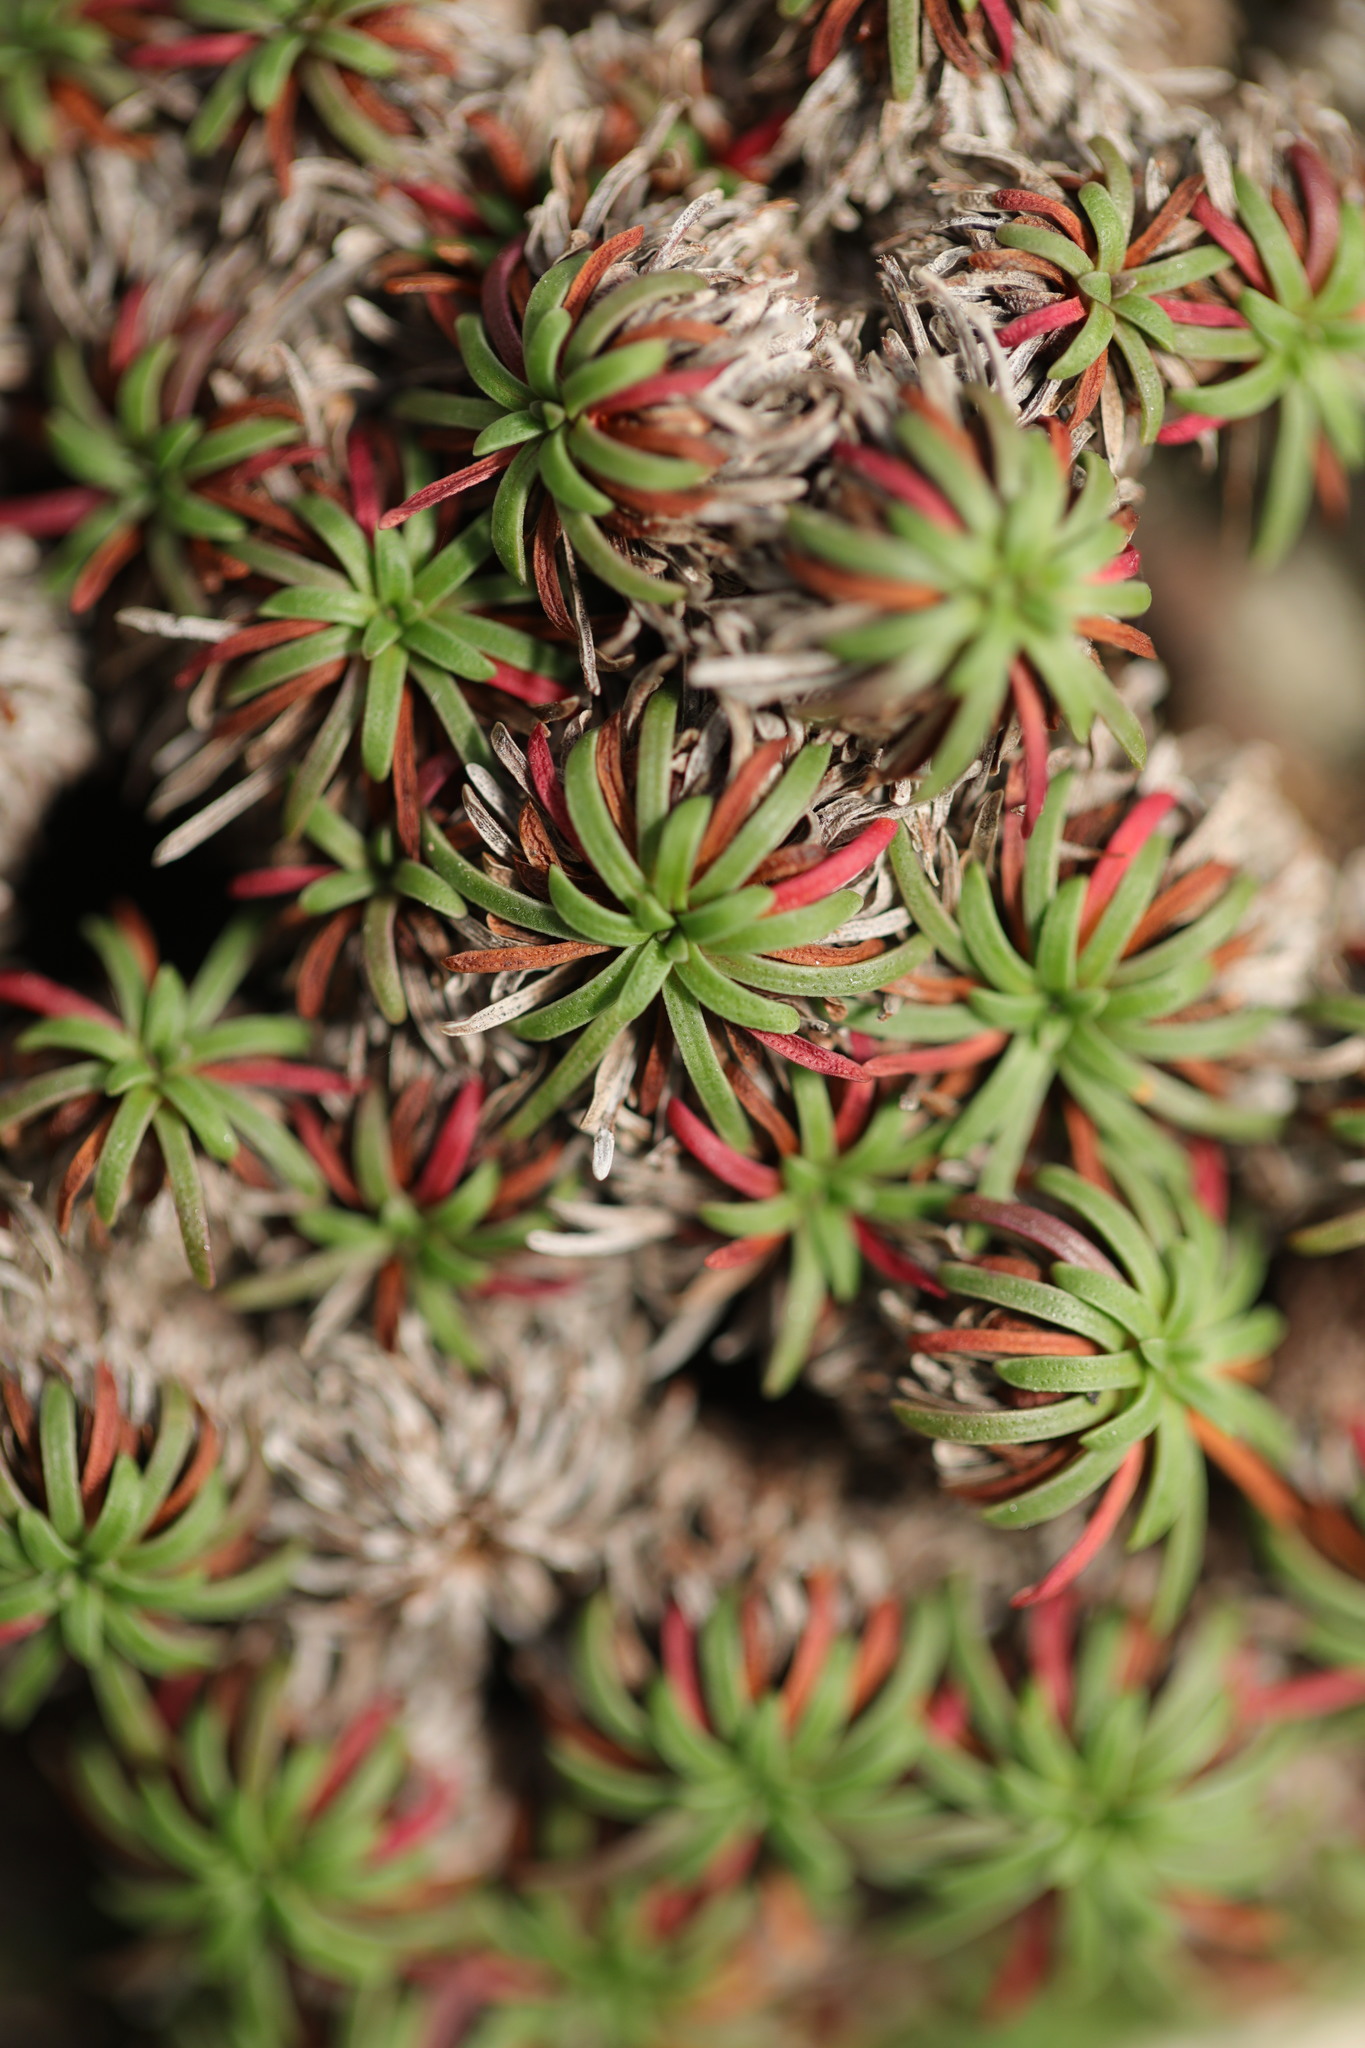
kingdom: Plantae
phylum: Tracheophyta
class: Magnoliopsida
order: Caryophyllales
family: Plumbaginaceae
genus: Armeria
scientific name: Armeria maritima
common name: Thrift
